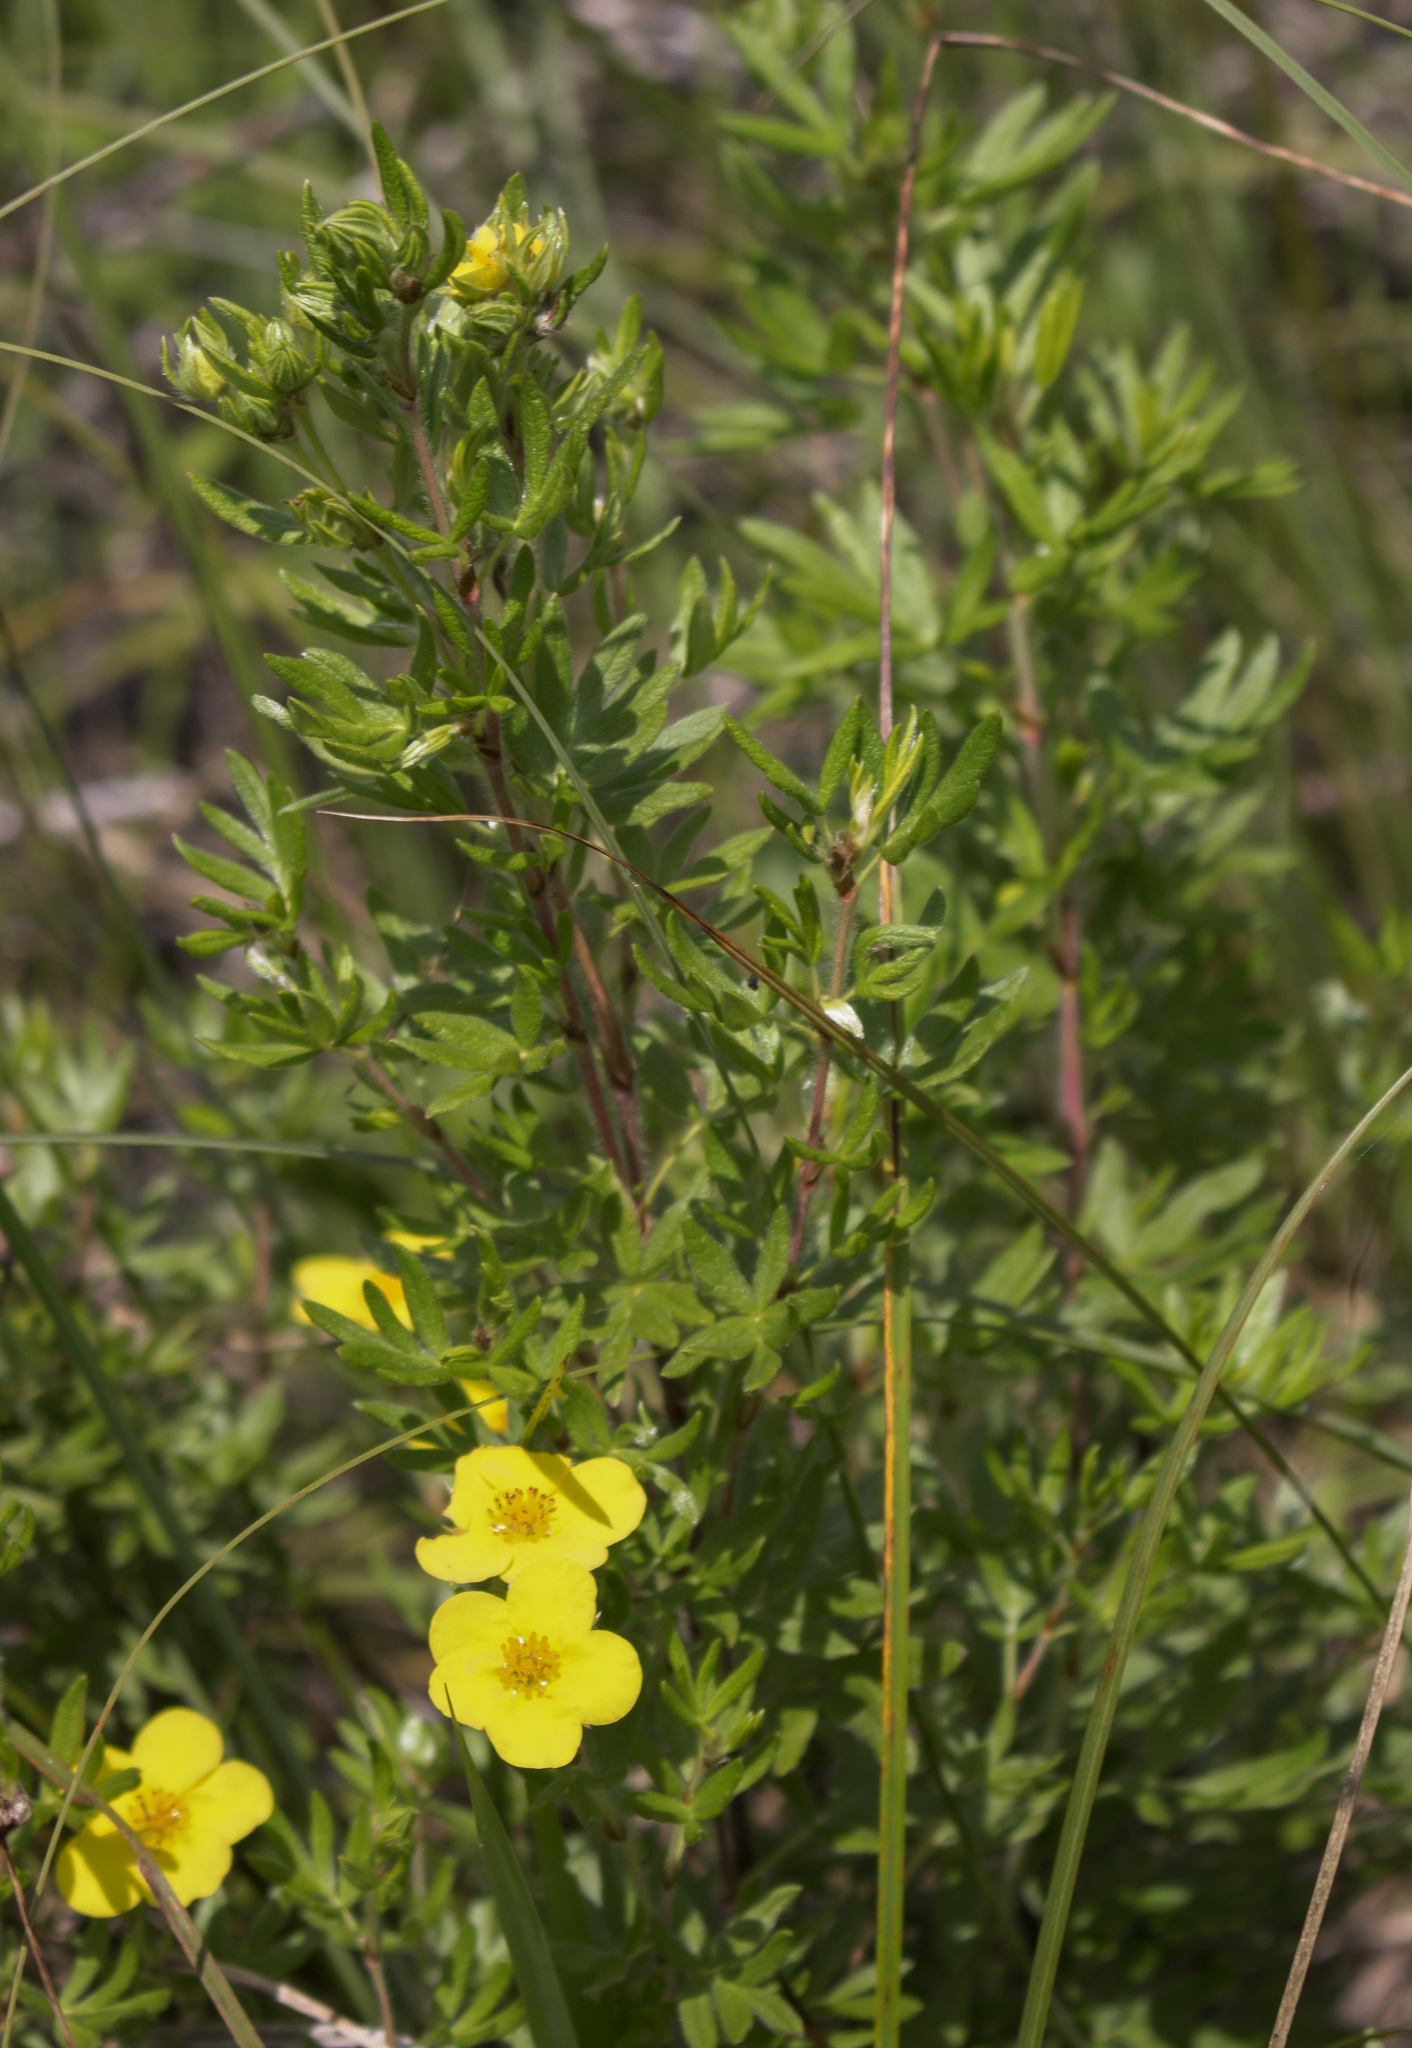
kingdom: Plantae
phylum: Tracheophyta
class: Magnoliopsida
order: Rosales
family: Rosaceae
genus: Dasiphora
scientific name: Dasiphora fruticosa
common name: Shrubby cinquefoil
